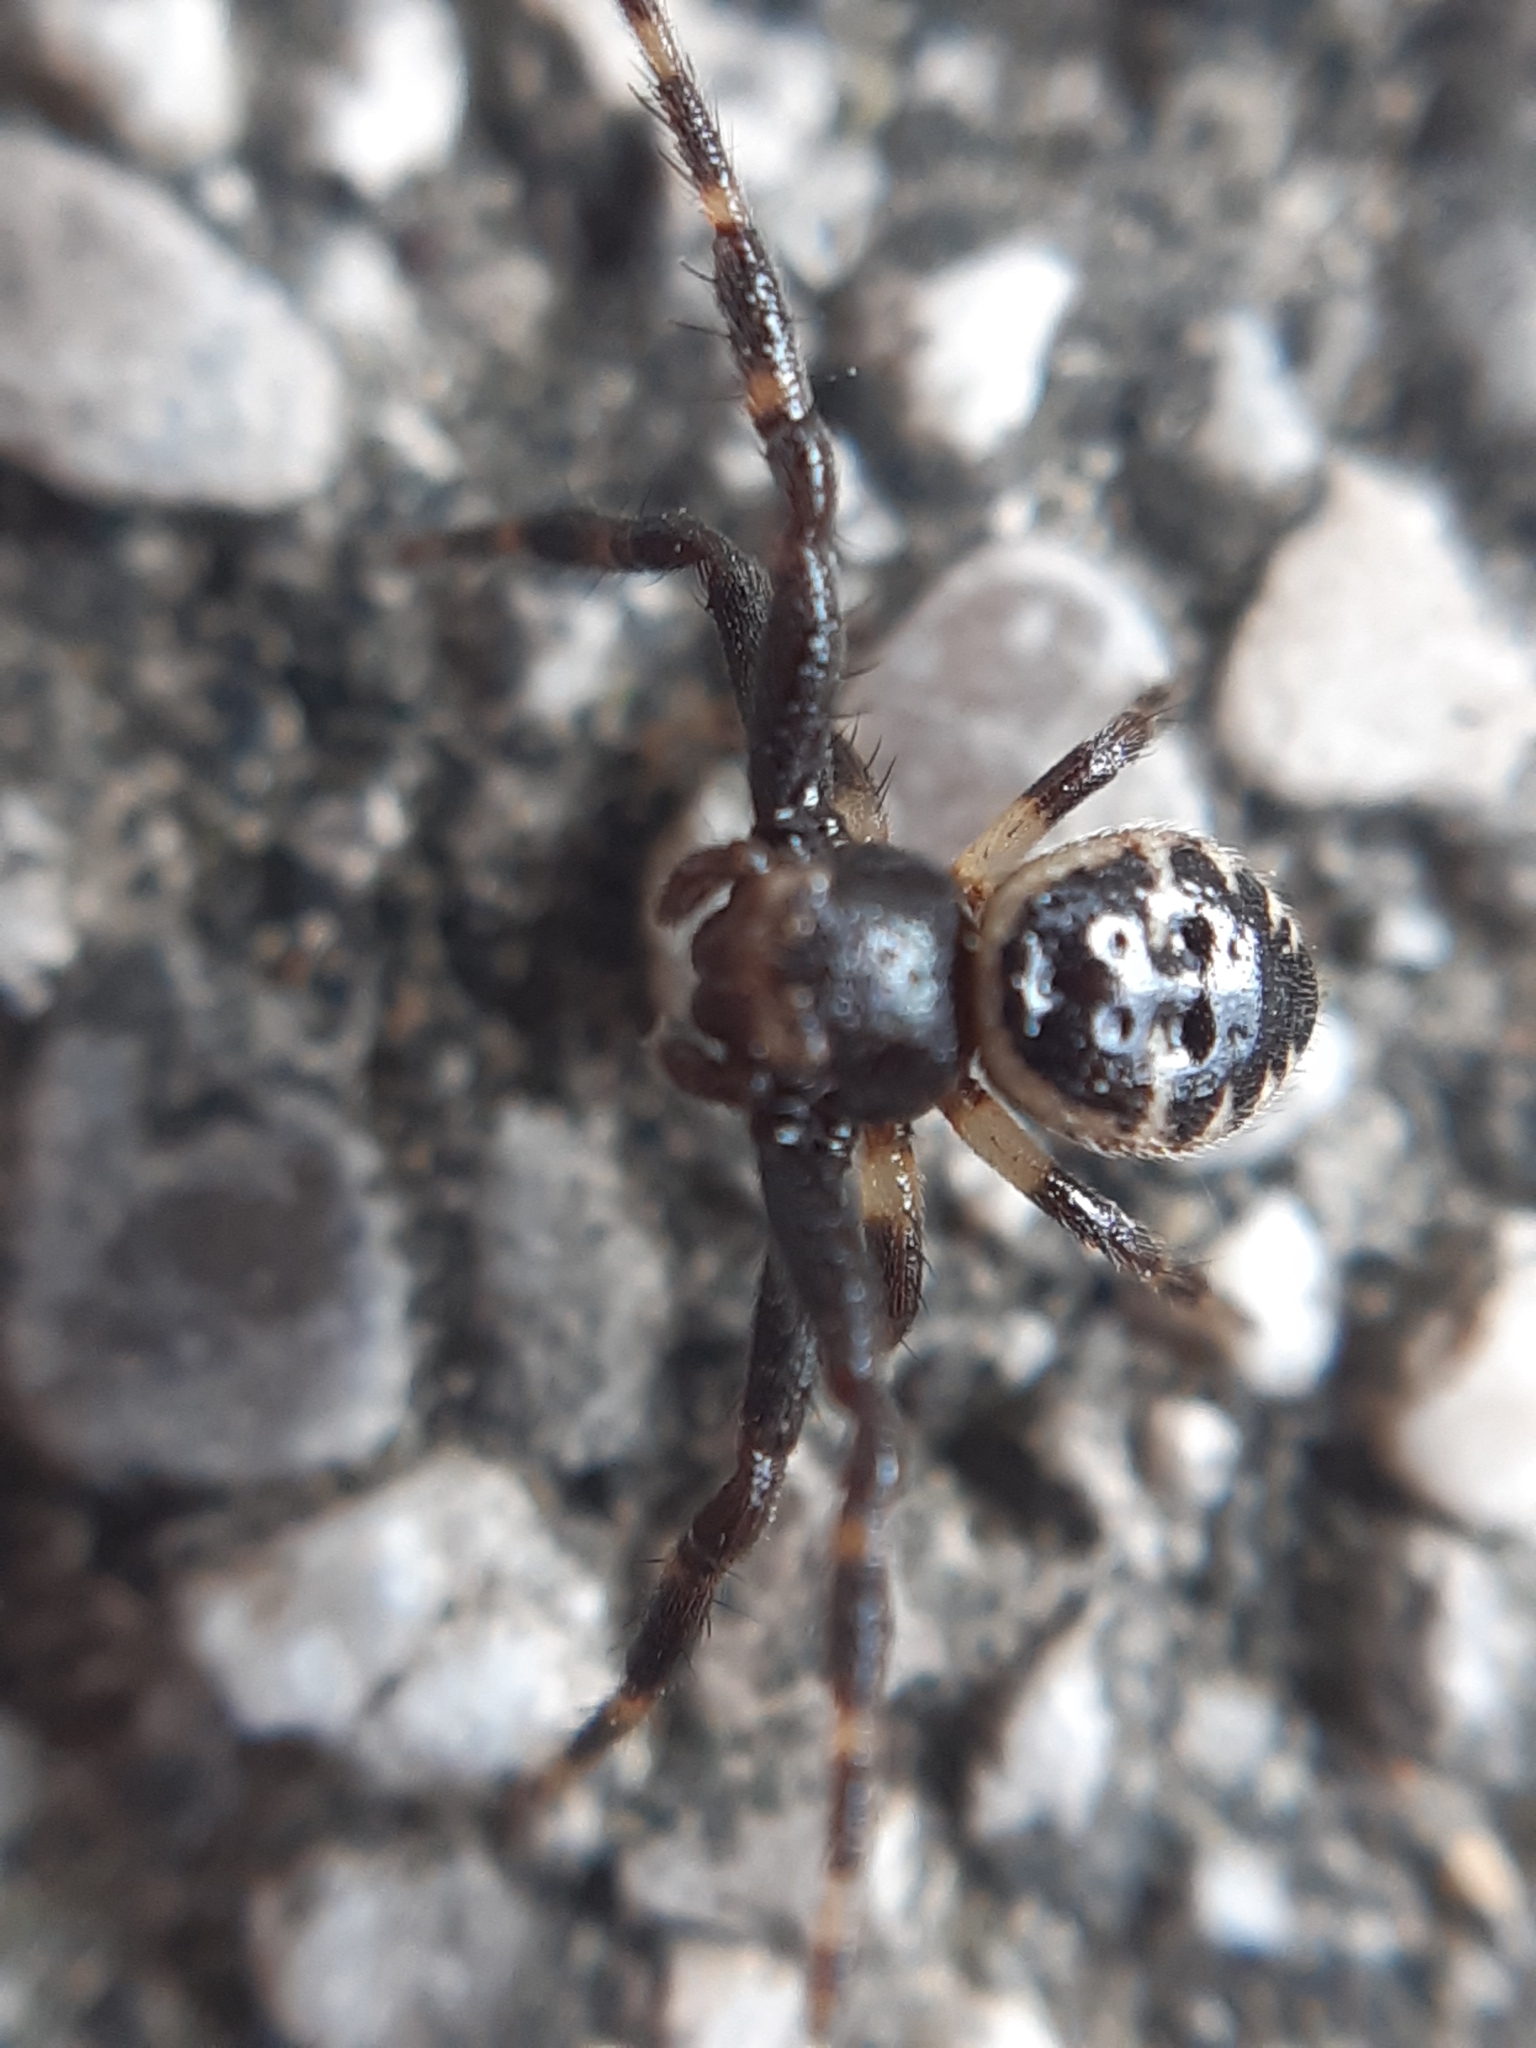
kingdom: Animalia
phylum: Arthropoda
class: Arachnida
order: Araneae
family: Thomisidae
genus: Synema
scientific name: Synema globosum
